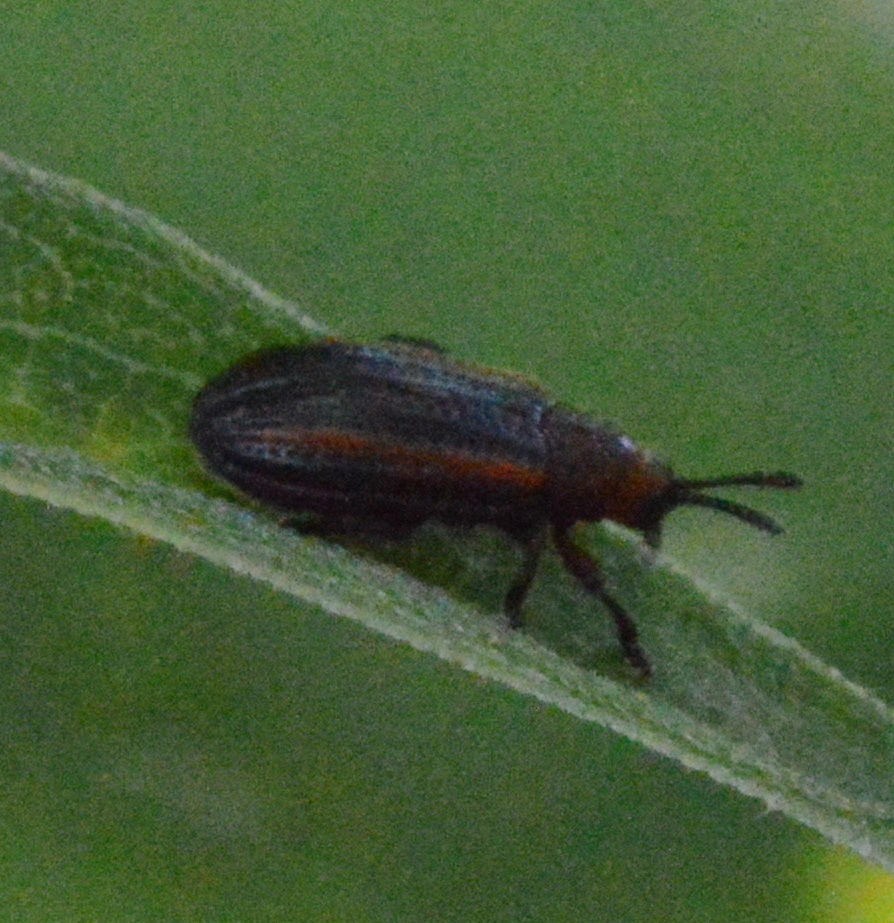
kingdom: Animalia
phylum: Arthropoda
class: Insecta
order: Coleoptera
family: Chrysomelidae
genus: Microrhopala
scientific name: Microrhopala vittata
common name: Goldenrod leaf miner beetle
